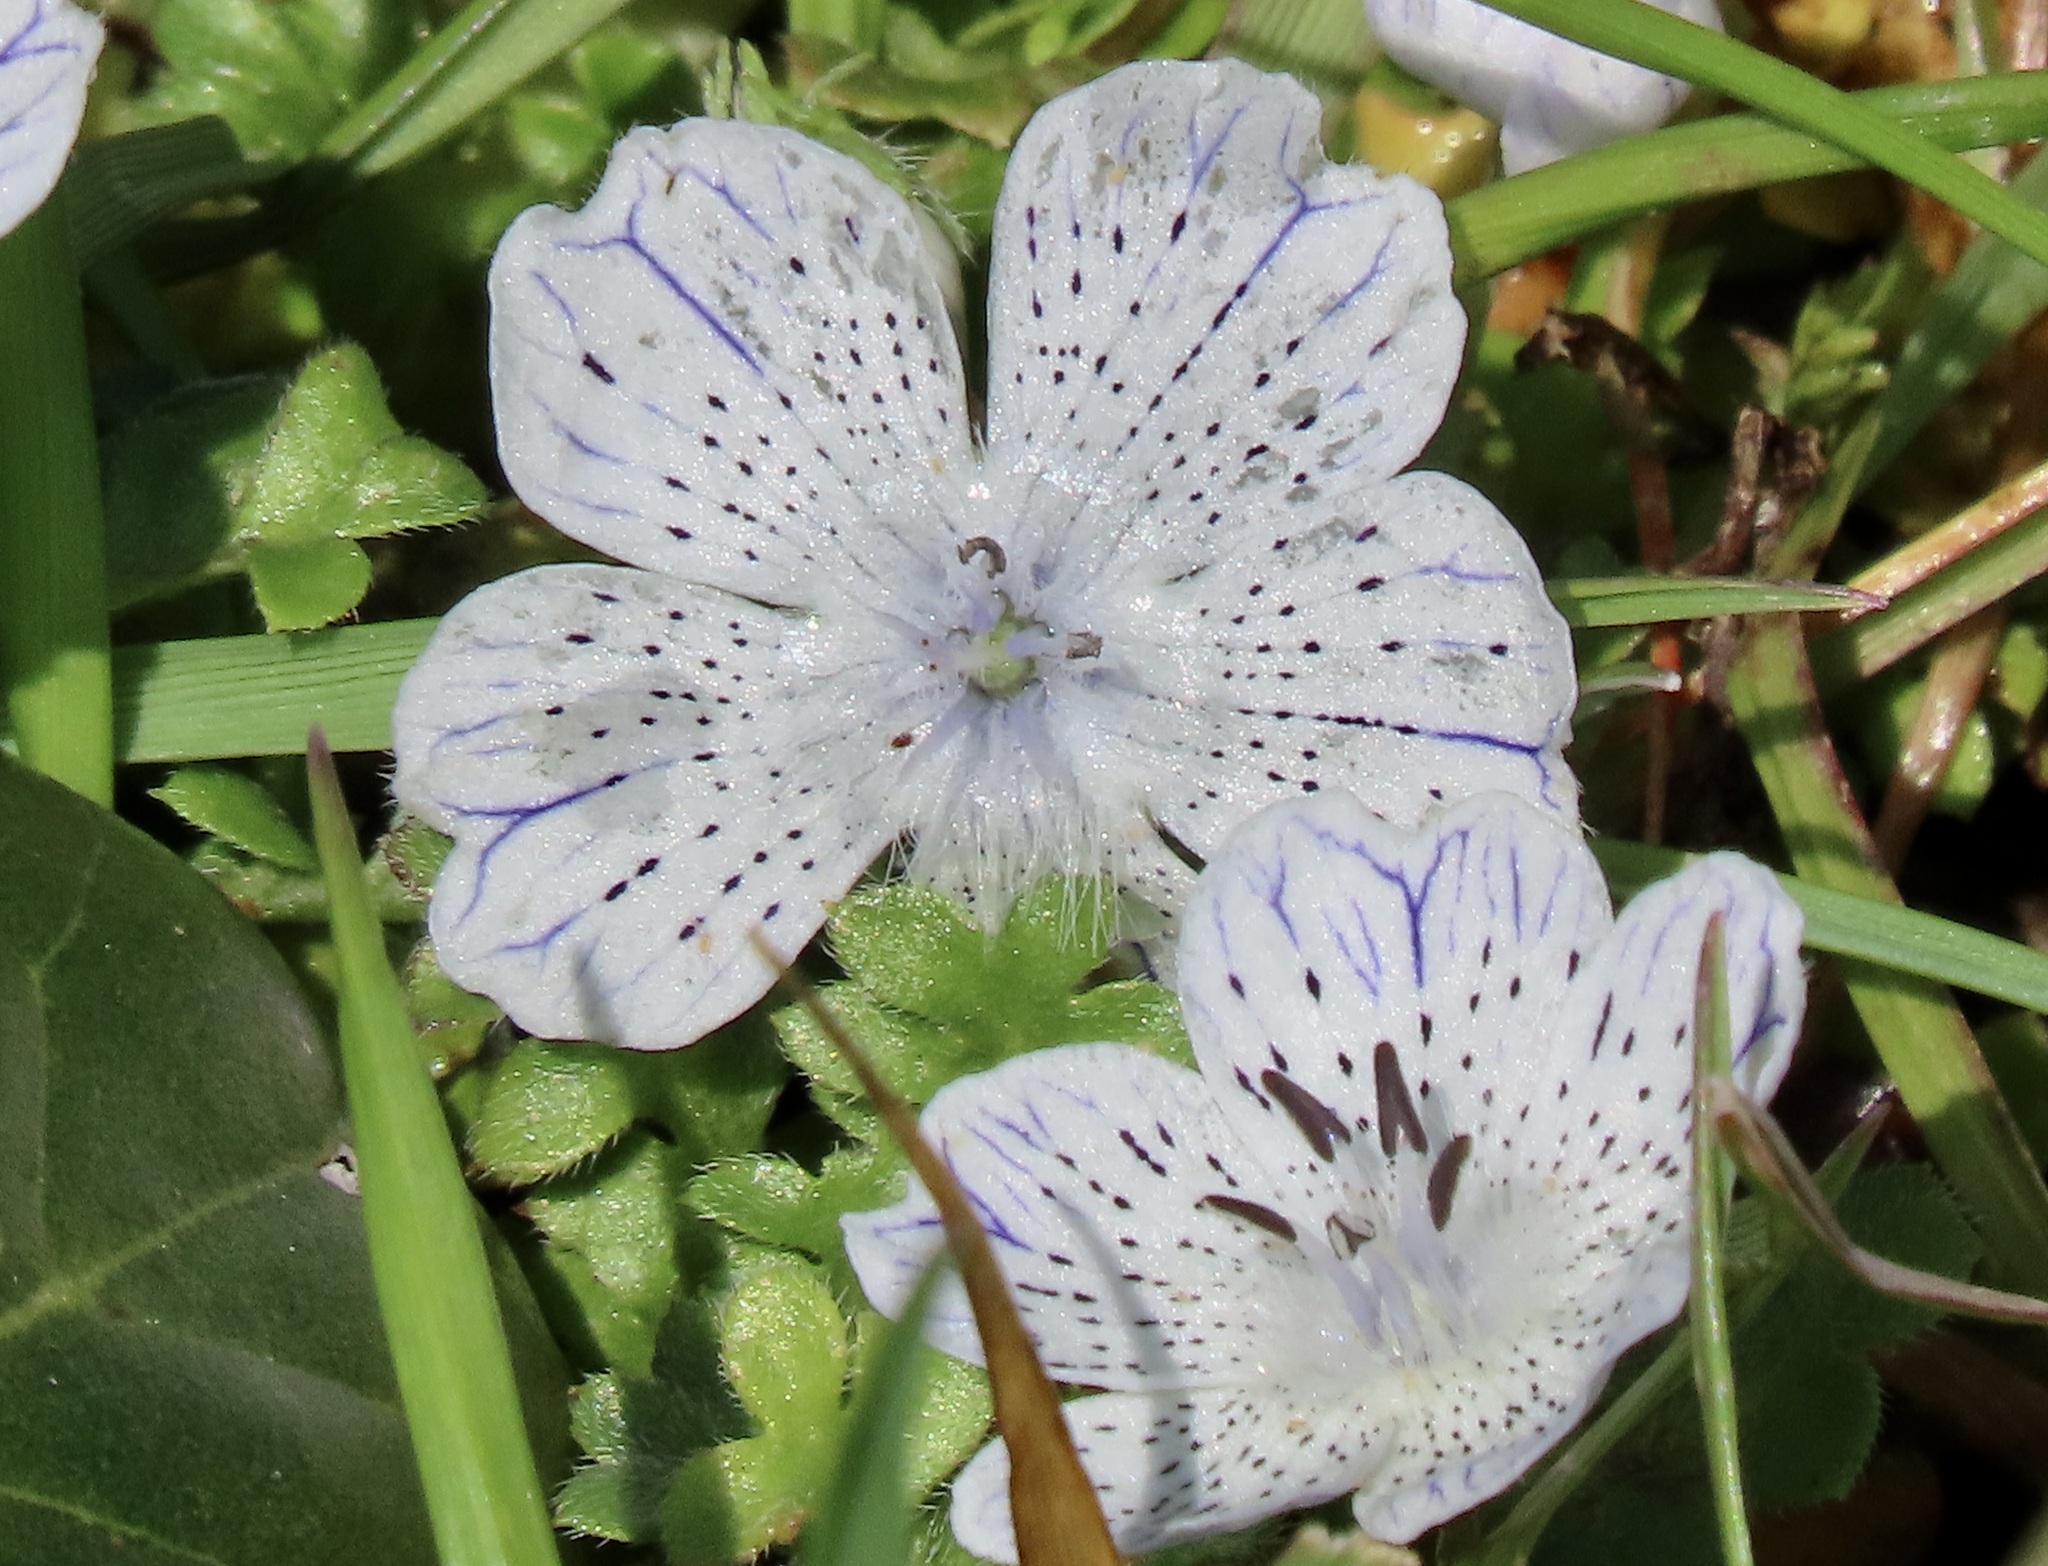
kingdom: Plantae
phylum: Tracheophyta
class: Magnoliopsida
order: Boraginales
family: Hydrophyllaceae
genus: Nemophila
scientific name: Nemophila menziesii
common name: Baby's-blue-eyes
